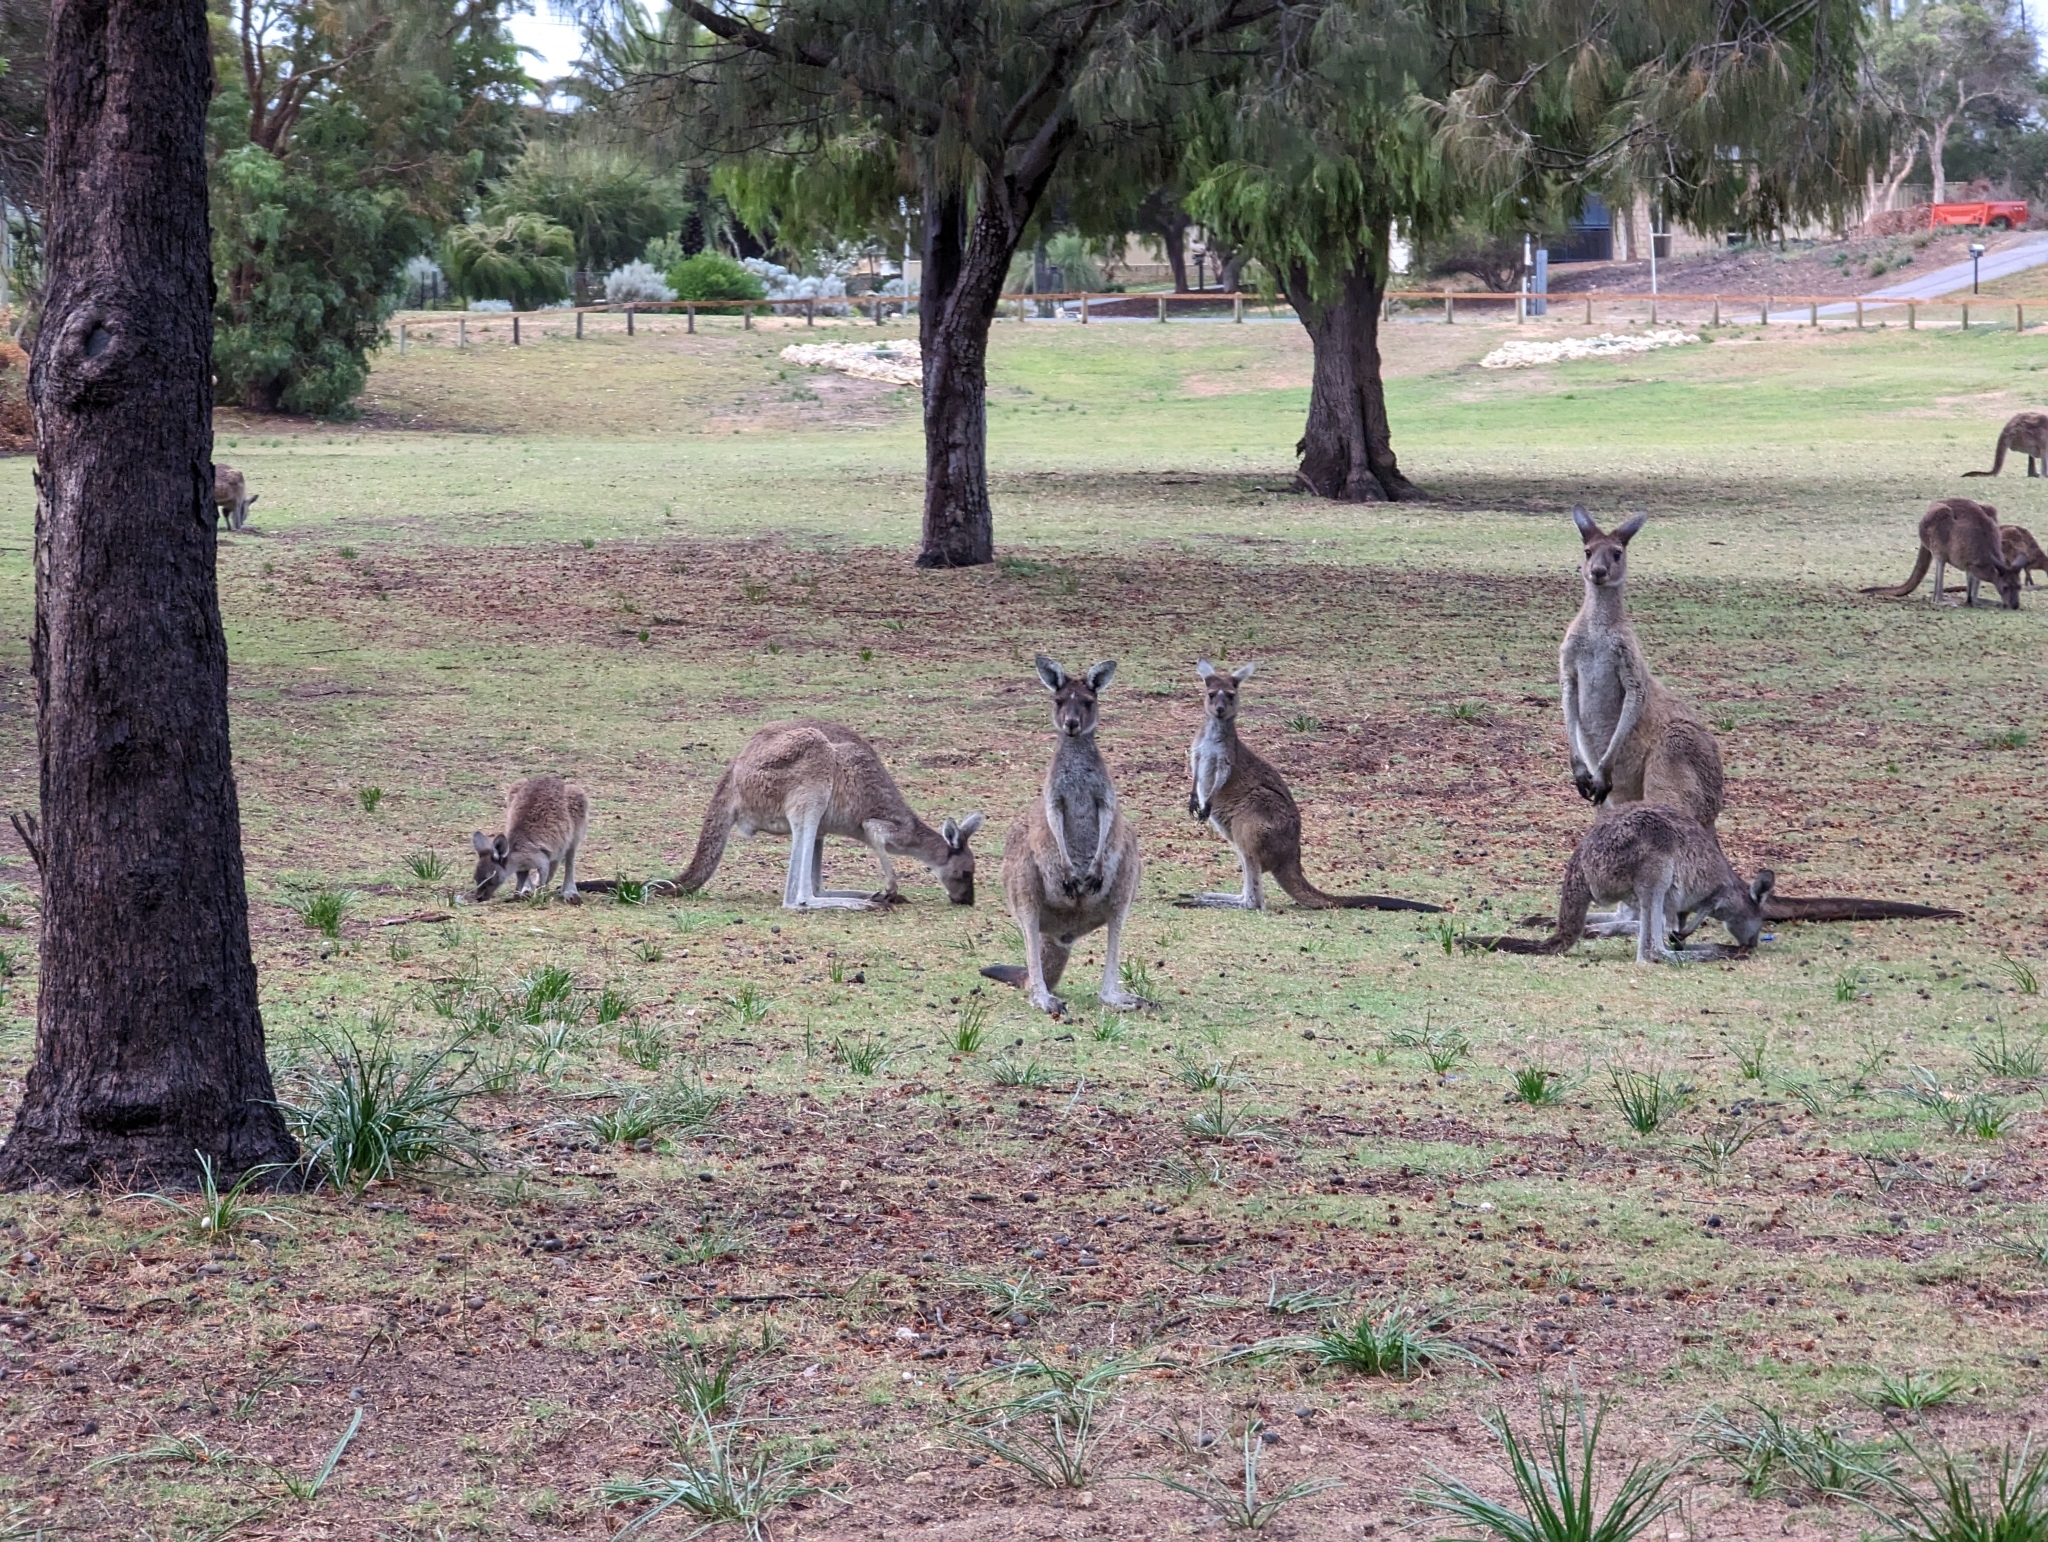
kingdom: Animalia
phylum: Chordata
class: Mammalia
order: Diprotodontia
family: Macropodidae
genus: Macropus
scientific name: Macropus fuliginosus
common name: Western grey kangaroo
